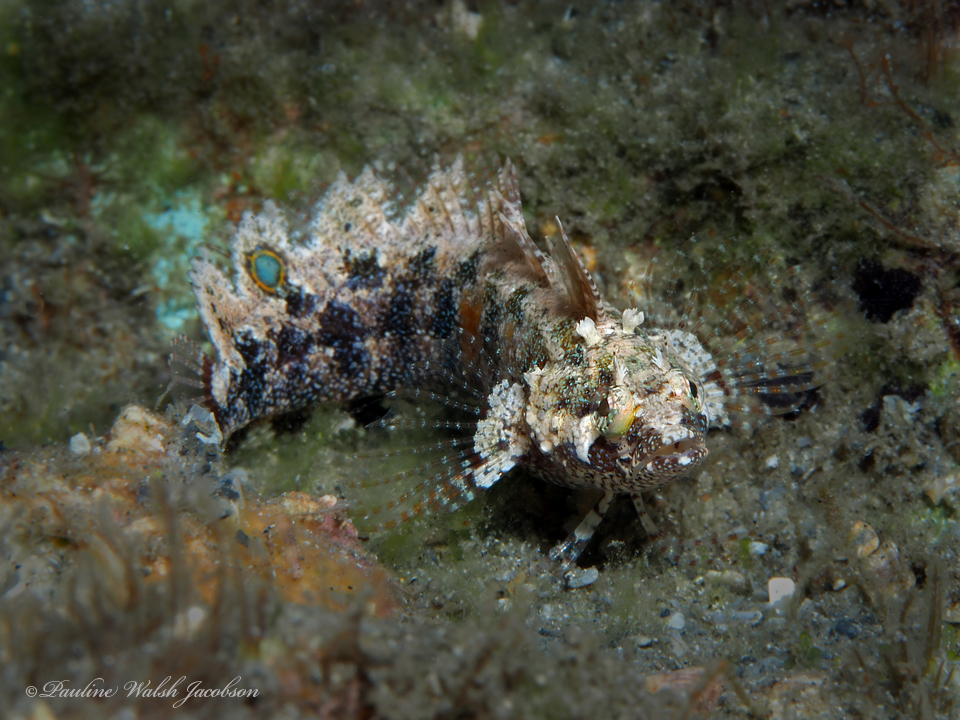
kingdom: Animalia
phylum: Chordata
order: Perciformes
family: Labrisomidae
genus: Paraclinus
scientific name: Paraclinus fasciatus
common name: Banded blenny
